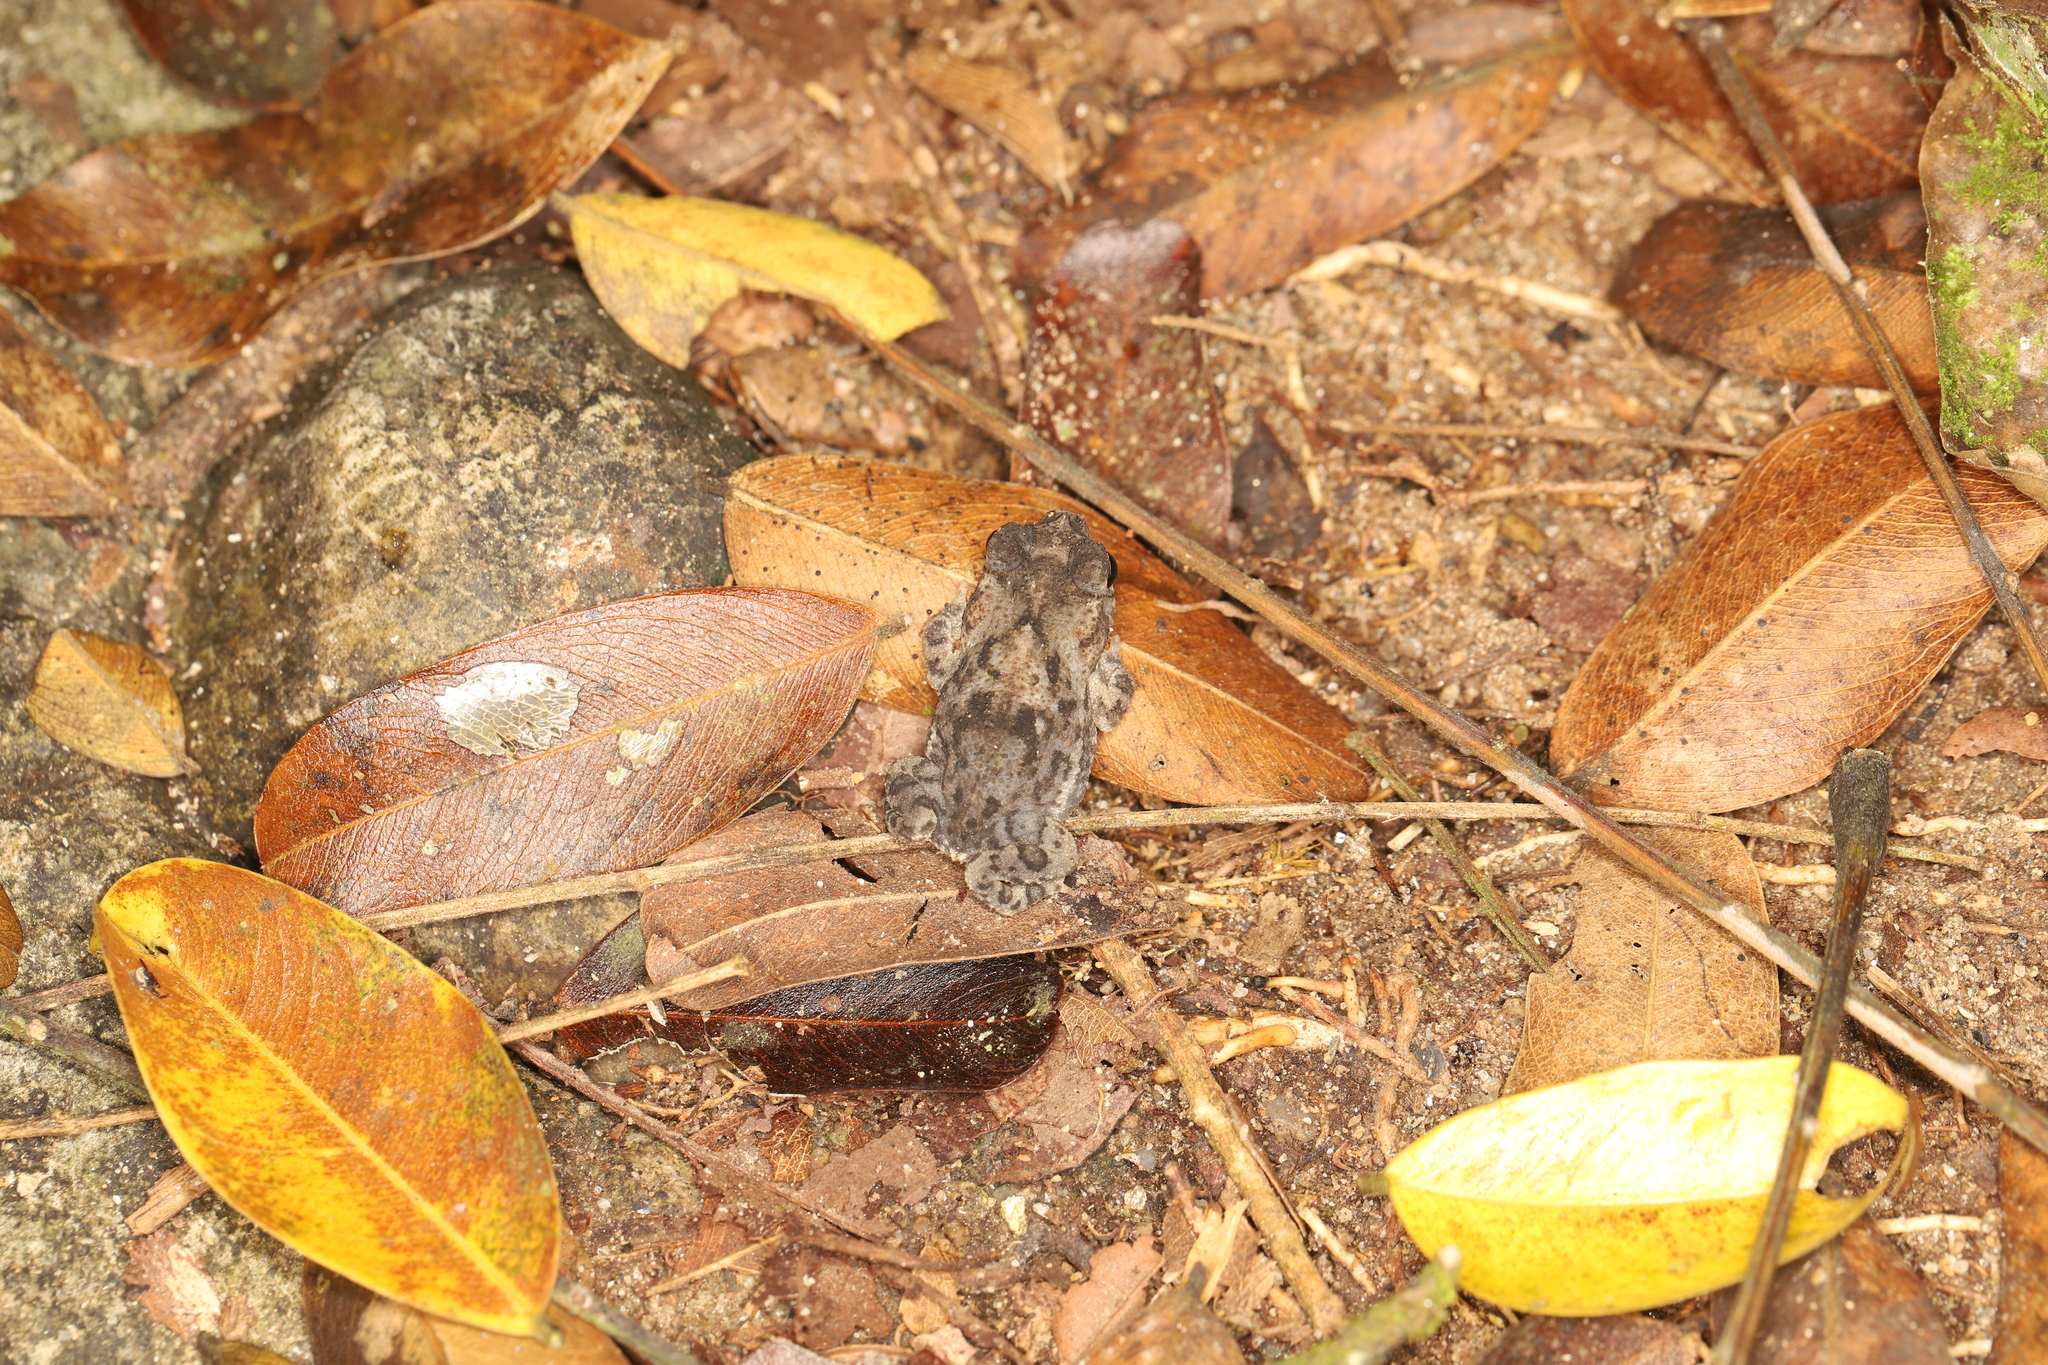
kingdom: Animalia
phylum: Chordata
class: Amphibia
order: Anura
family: Bufonidae
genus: Rhinella
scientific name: Rhinella humboldti
